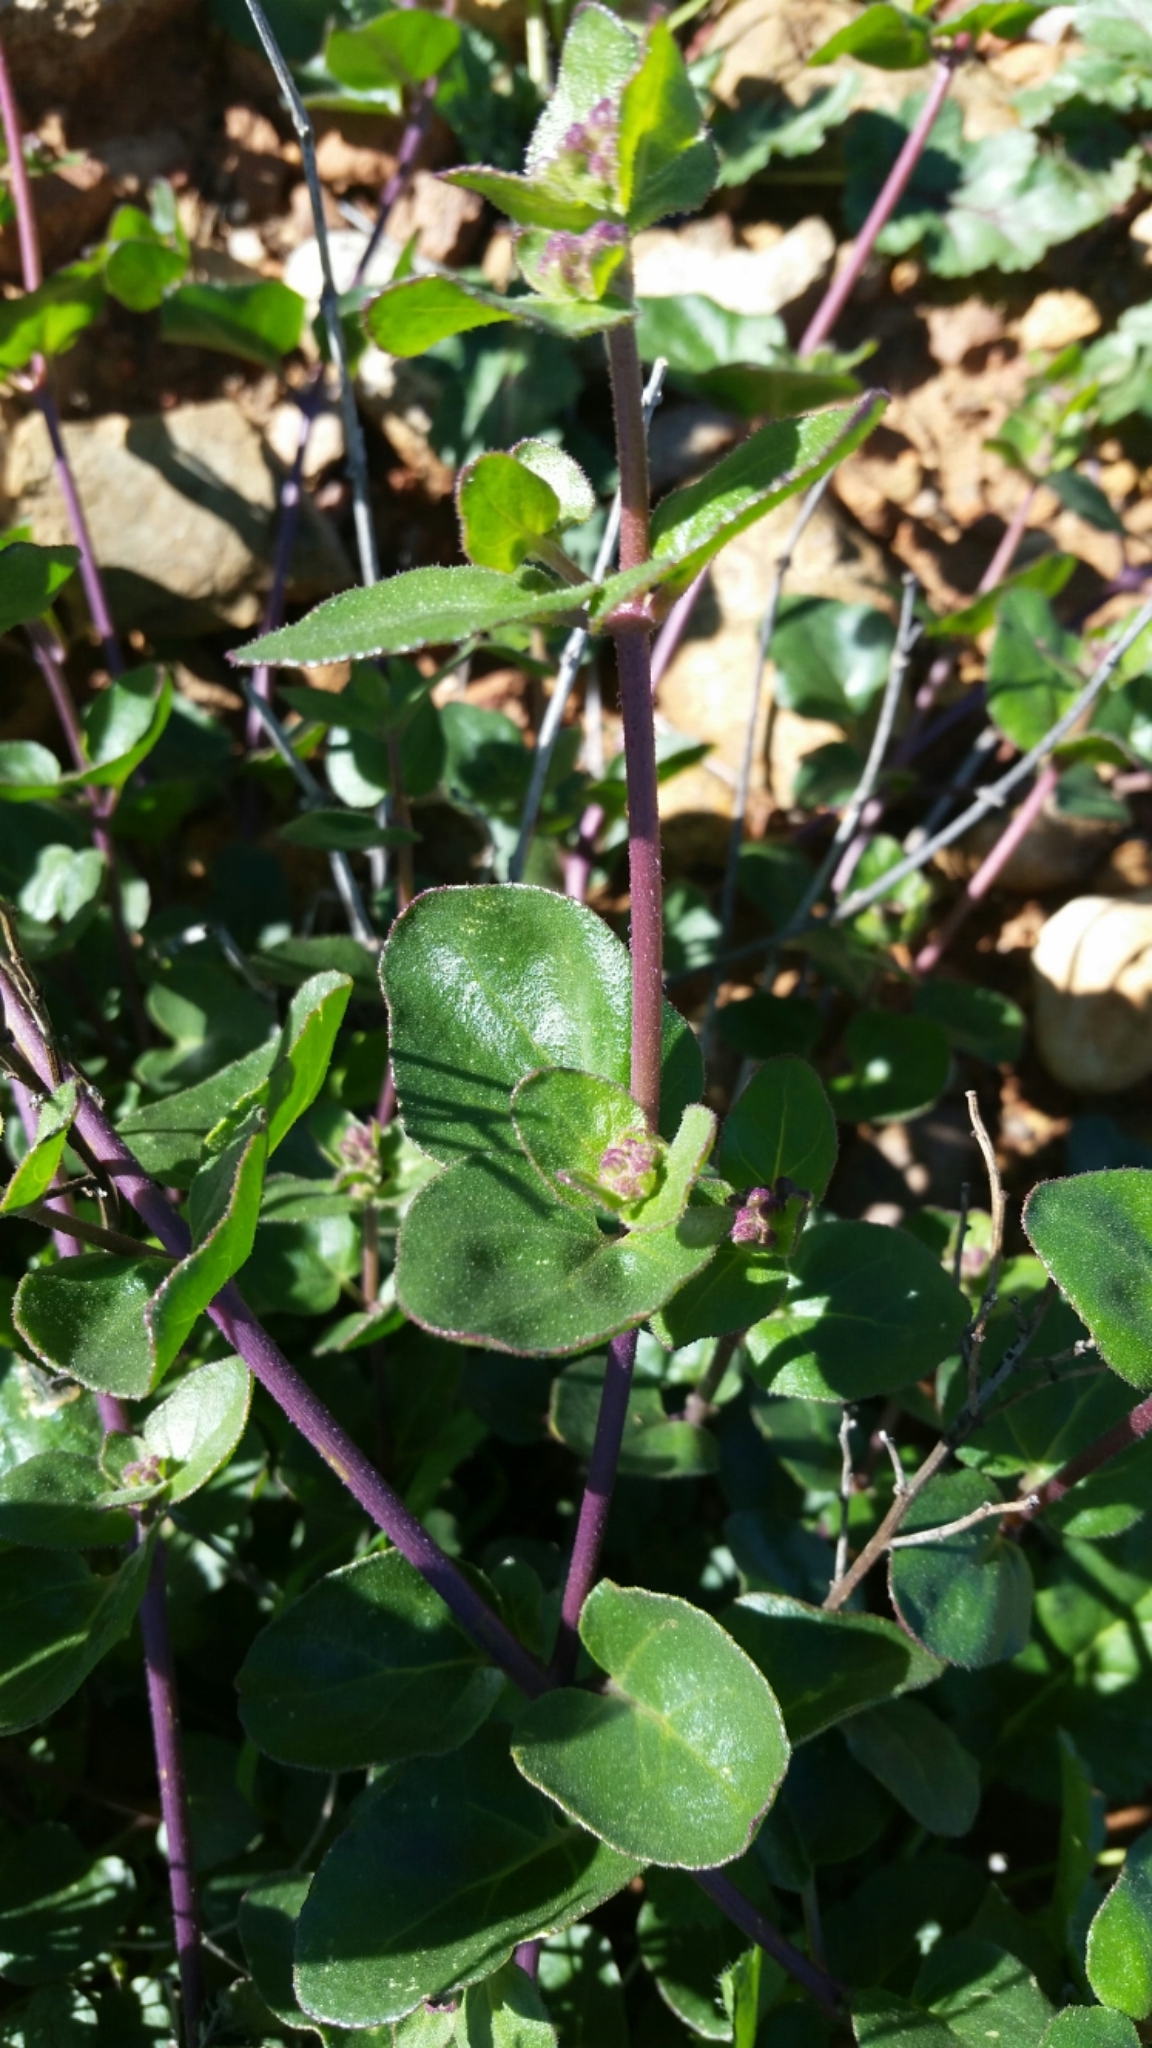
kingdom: Plantae
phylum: Tracheophyta
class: Magnoliopsida
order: Caryophyllales
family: Nyctaginaceae
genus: Mirabilis
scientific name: Mirabilis laevis
